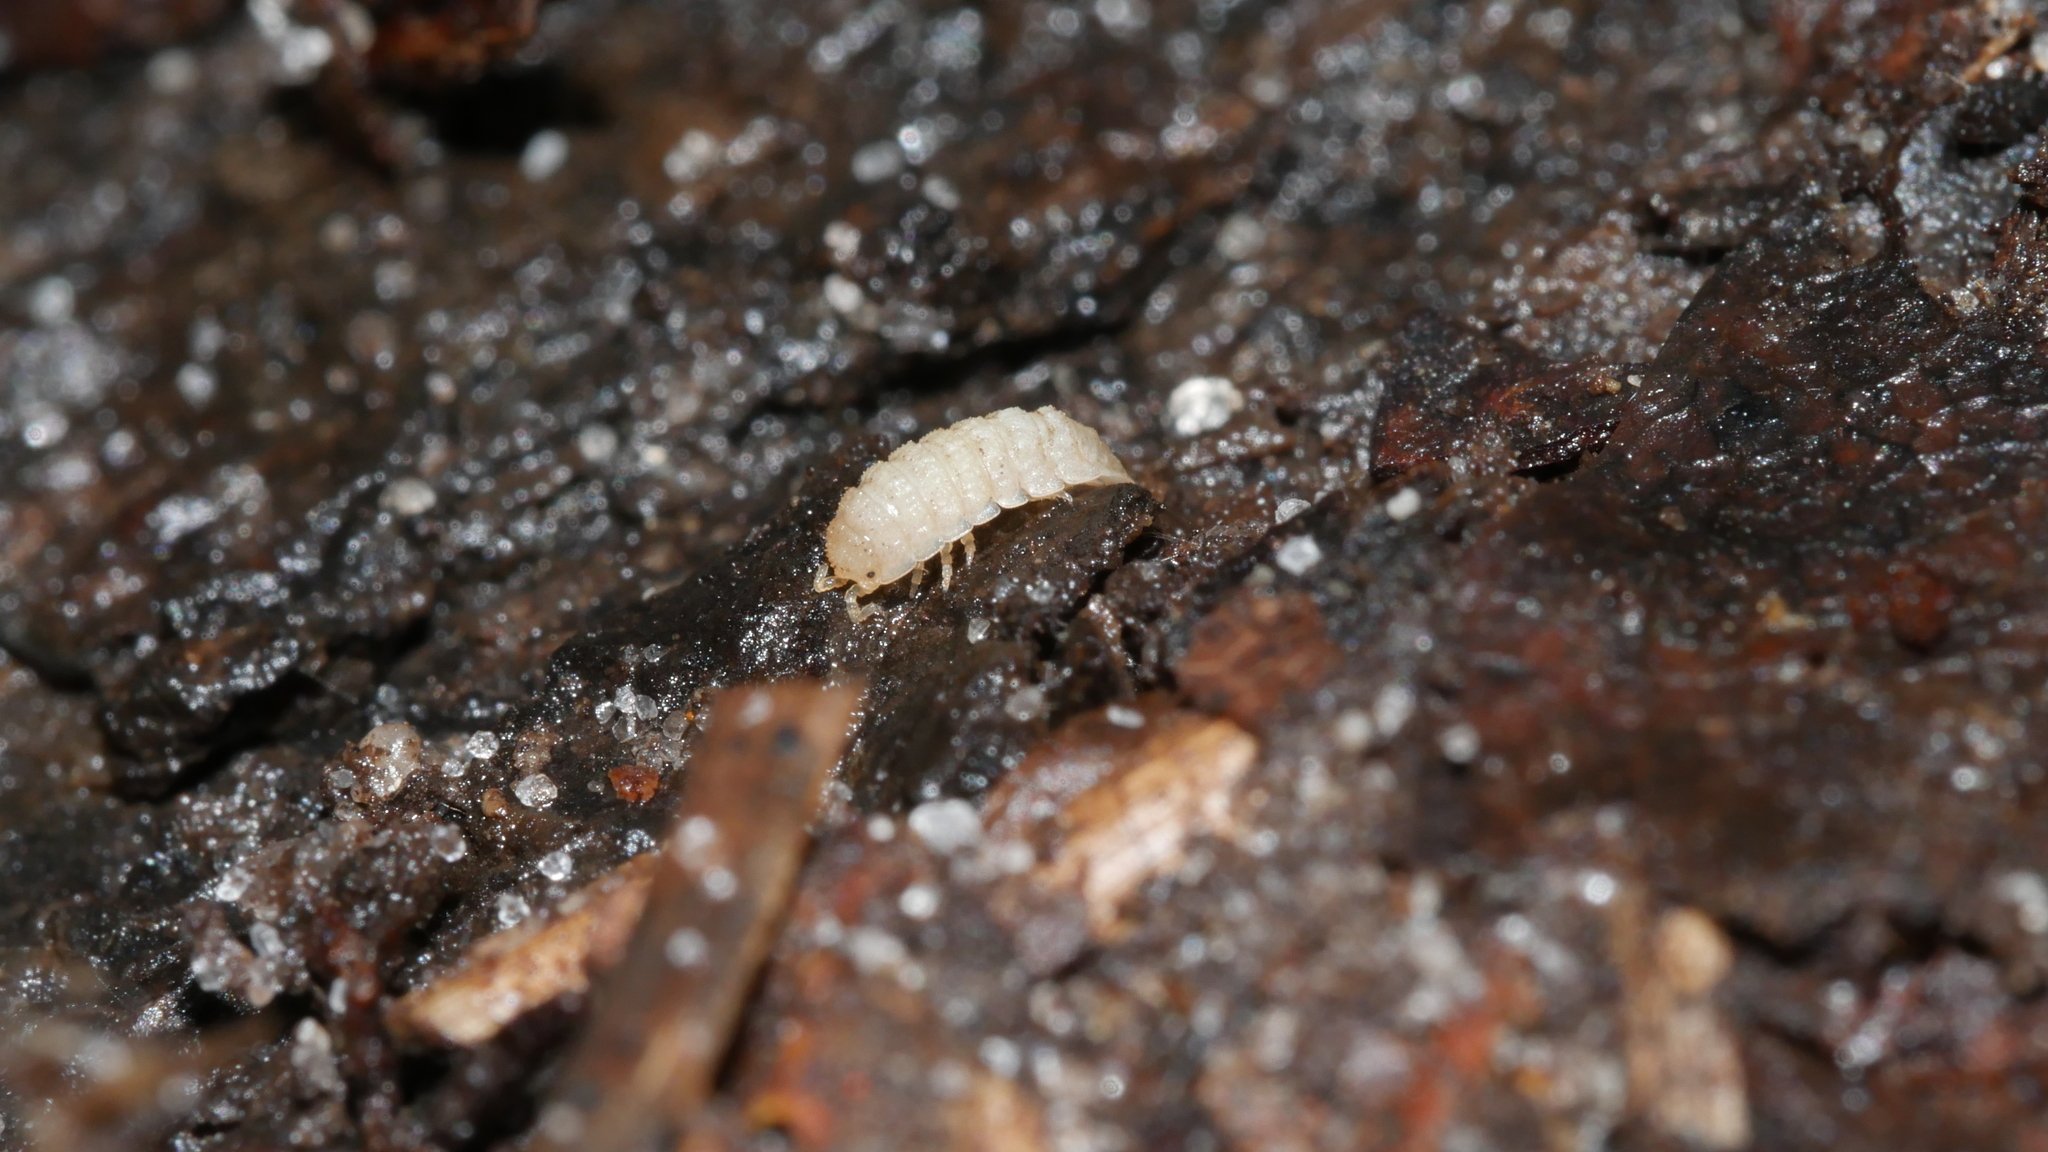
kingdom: Animalia
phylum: Arthropoda
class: Malacostraca
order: Isopoda
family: Trichoniscidae
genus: Haplophthalmus
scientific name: Haplophthalmus danicus
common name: Pillbug
